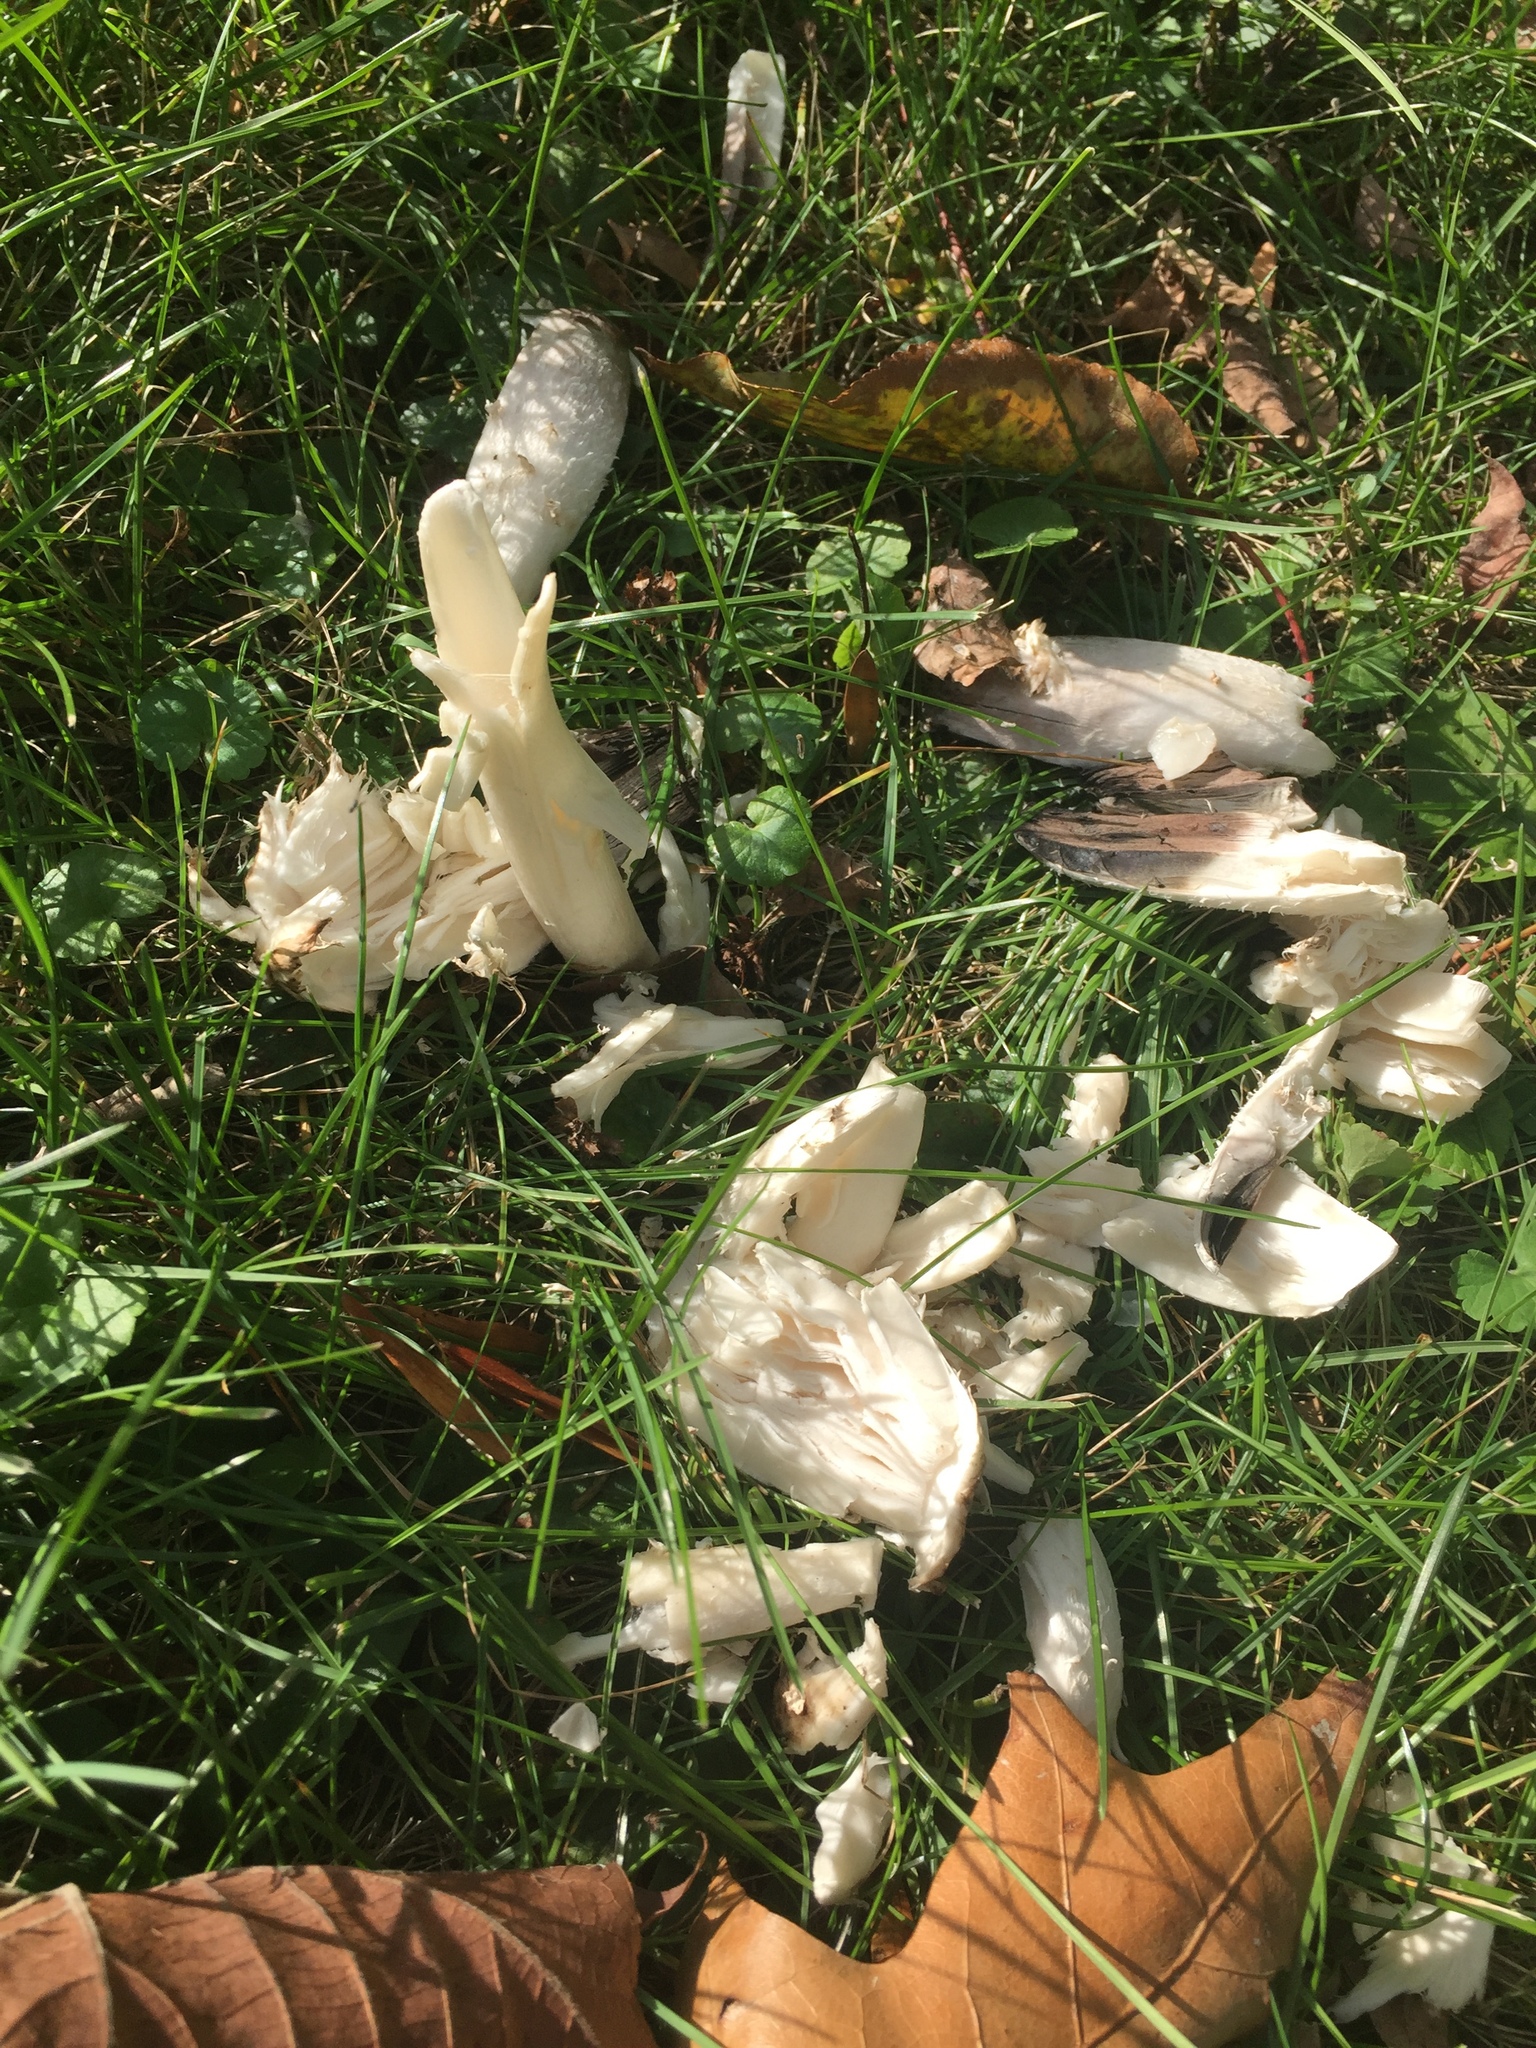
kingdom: Fungi
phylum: Basidiomycota
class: Agaricomycetes
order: Agaricales
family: Agaricaceae
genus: Coprinus
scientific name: Coprinus comatus
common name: Lawyer's wig
